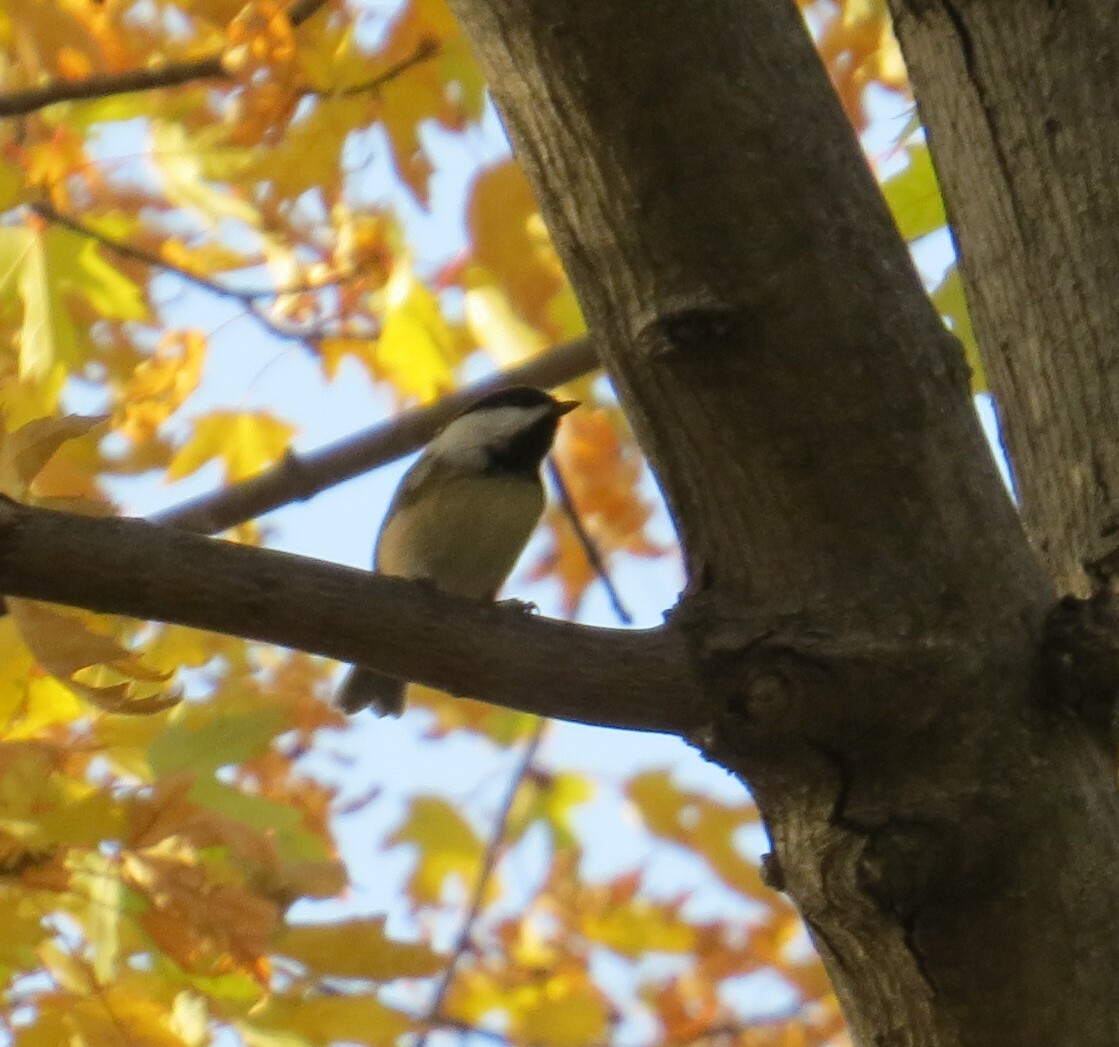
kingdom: Animalia
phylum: Chordata
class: Aves
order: Passeriformes
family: Paridae
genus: Poecile
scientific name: Poecile atricapillus
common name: Black-capped chickadee
